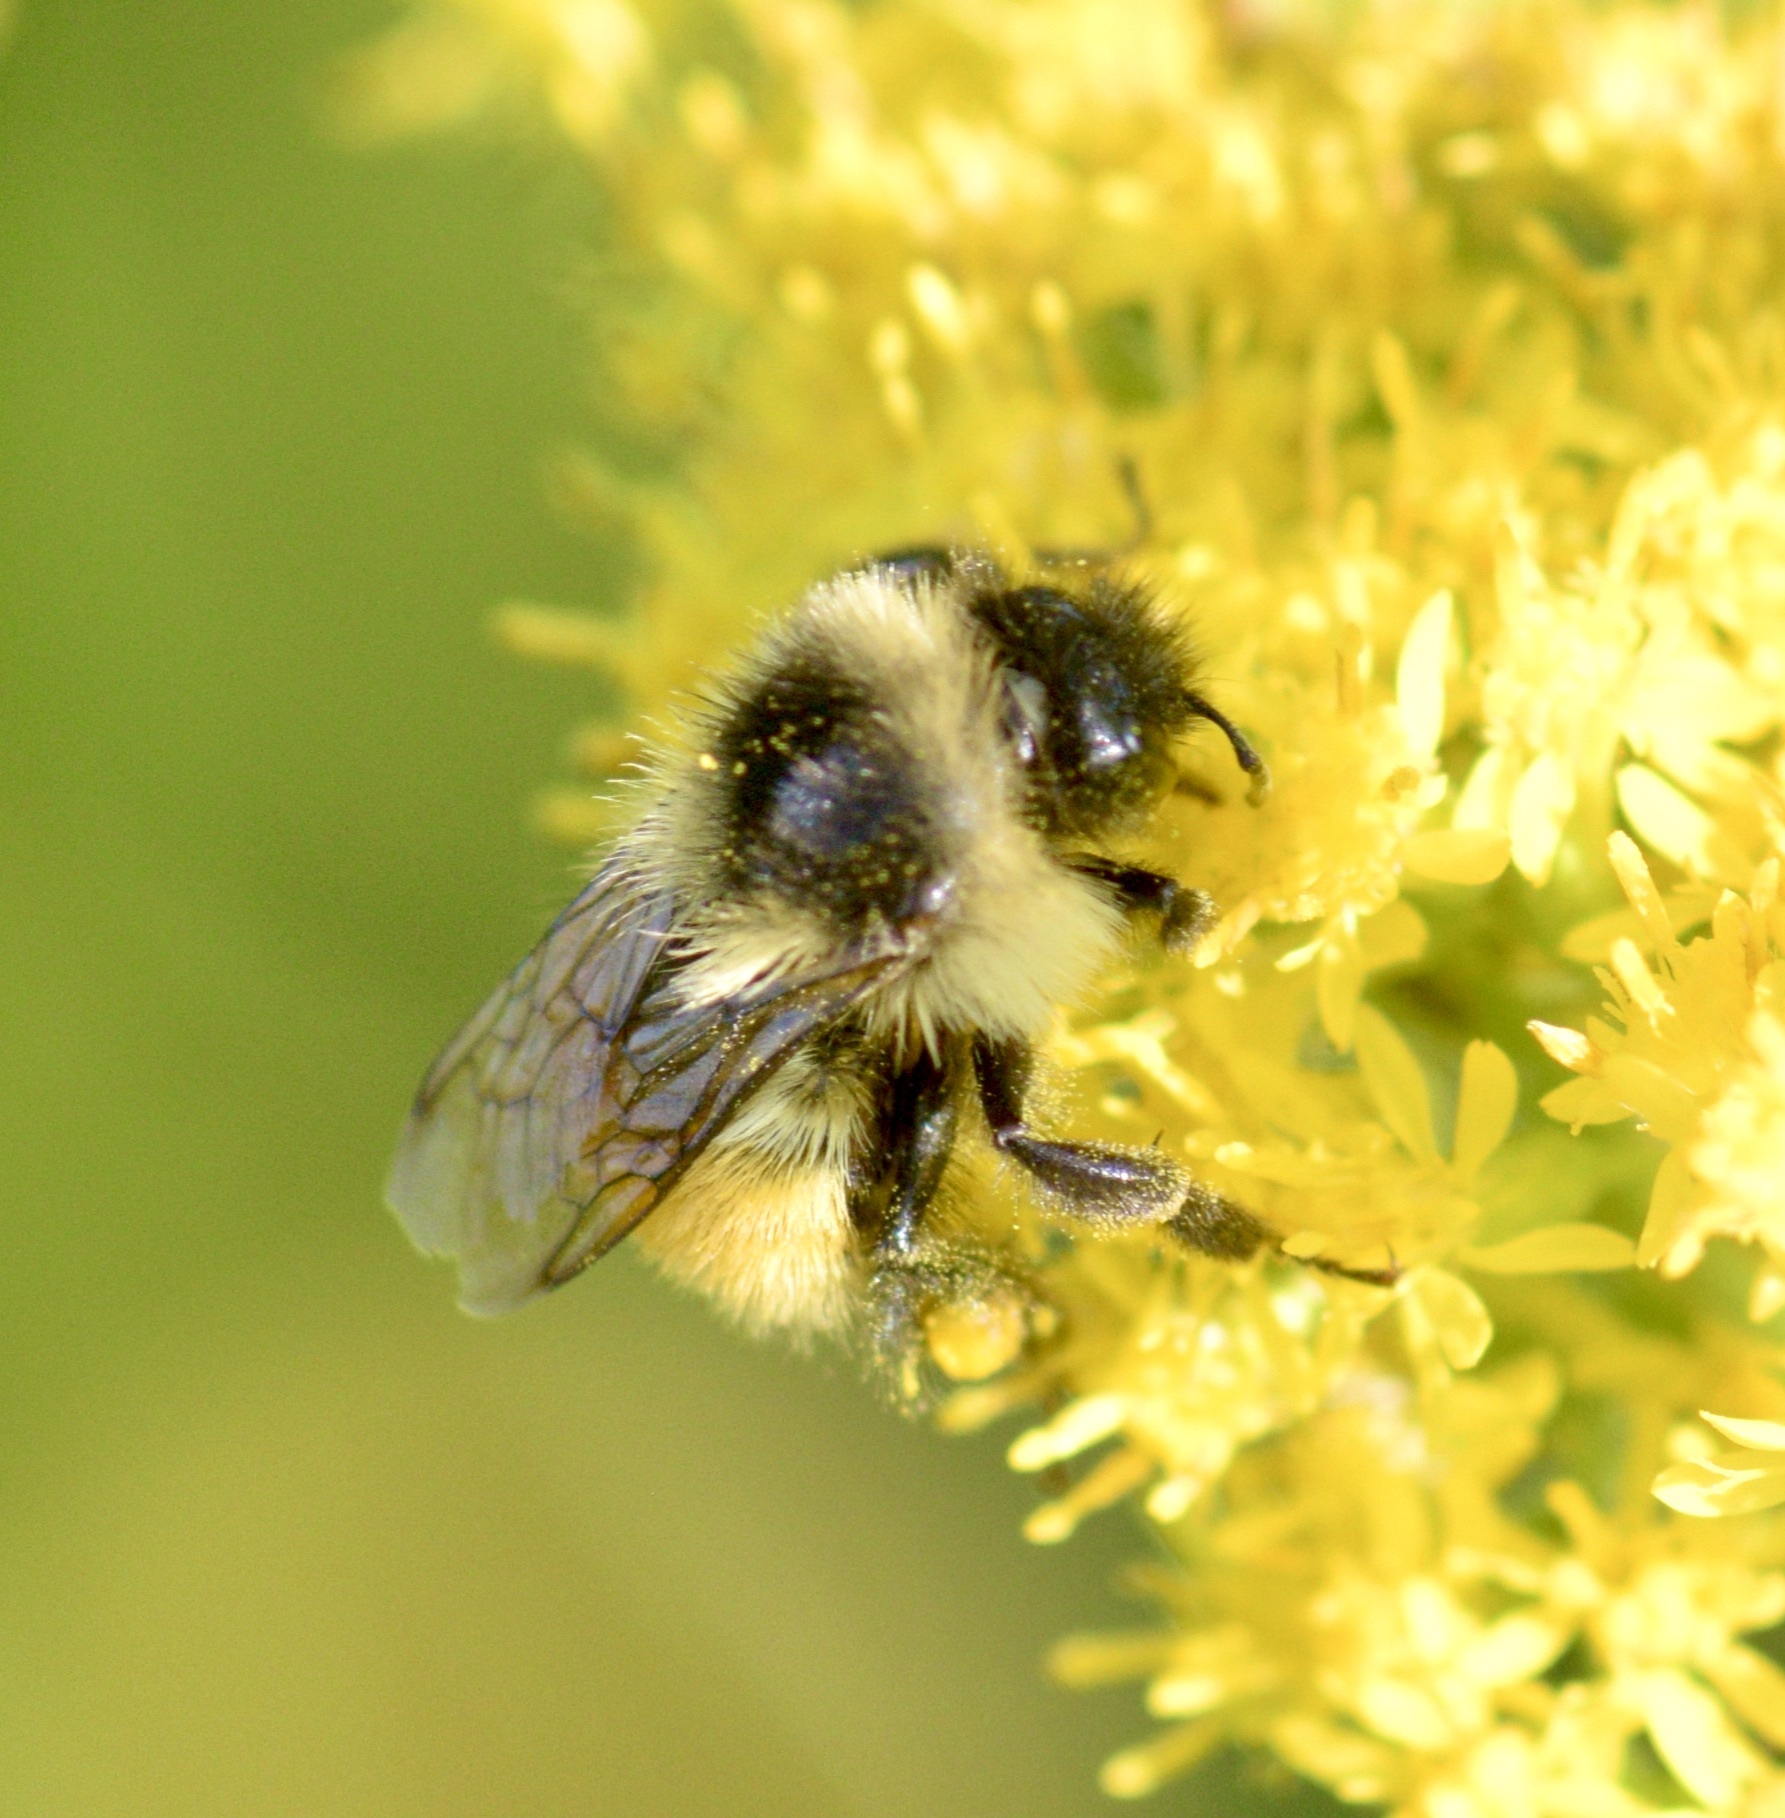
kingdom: Animalia
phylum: Arthropoda
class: Insecta
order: Hymenoptera
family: Apidae
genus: Bombus
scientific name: Bombus ternarius
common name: Tri-colored bumble bee
